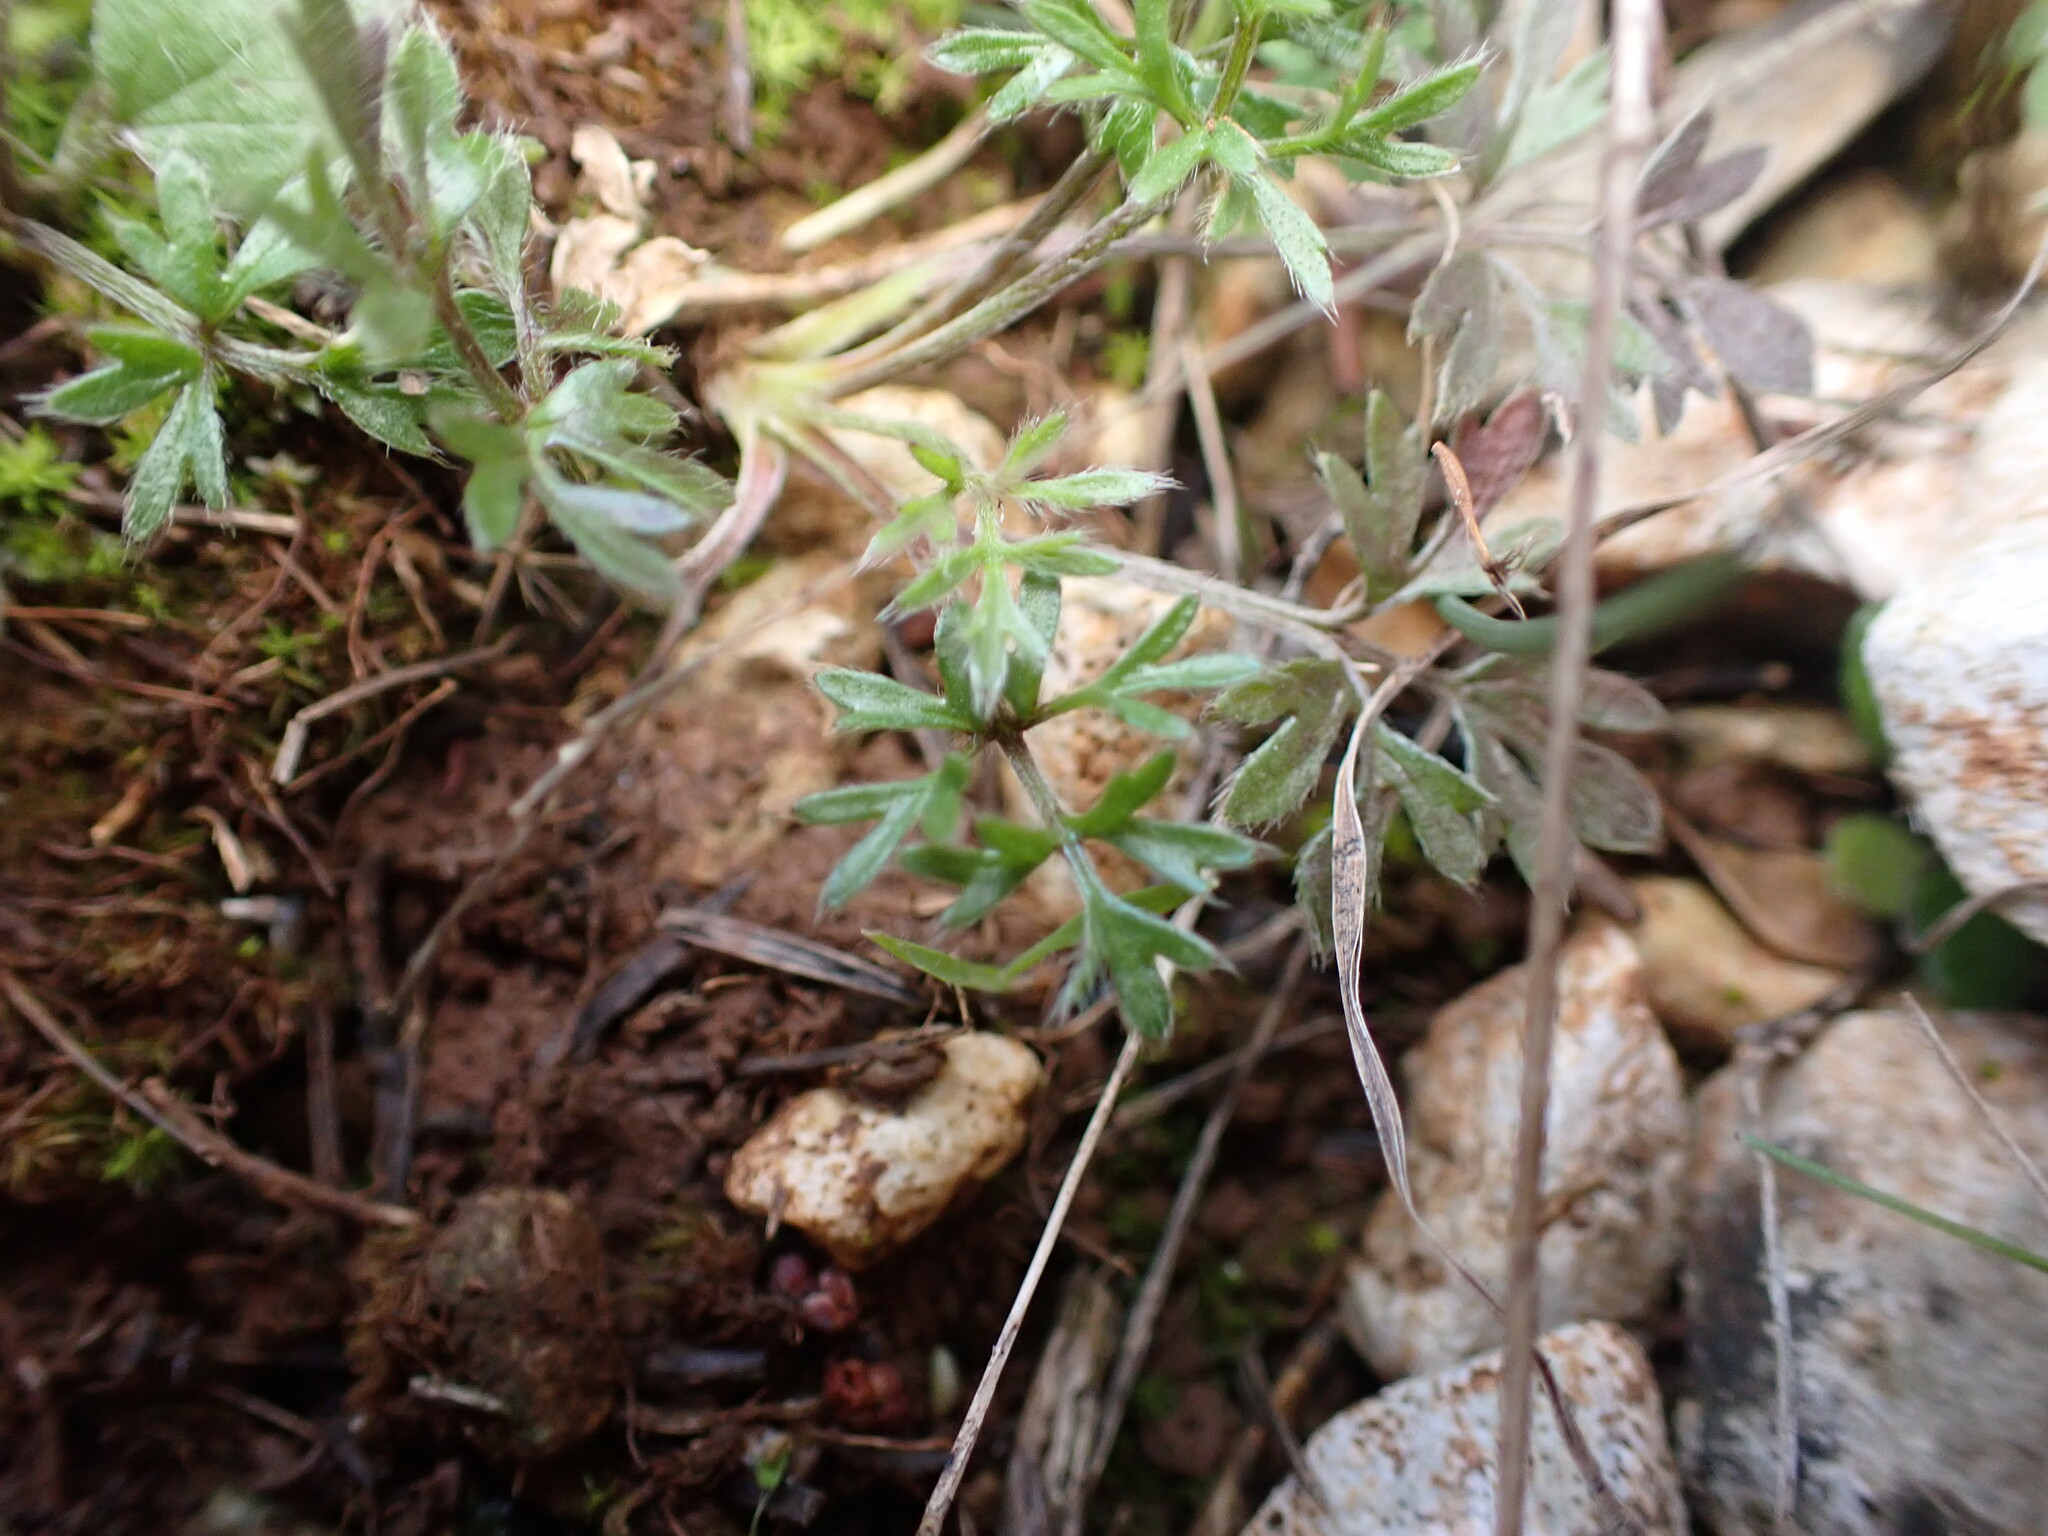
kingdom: Plantae
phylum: Tracheophyta
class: Magnoliopsida
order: Ranunculales
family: Ranunculaceae
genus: Ranunculus
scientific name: Ranunculus paludosus
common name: Jersey buttercup
